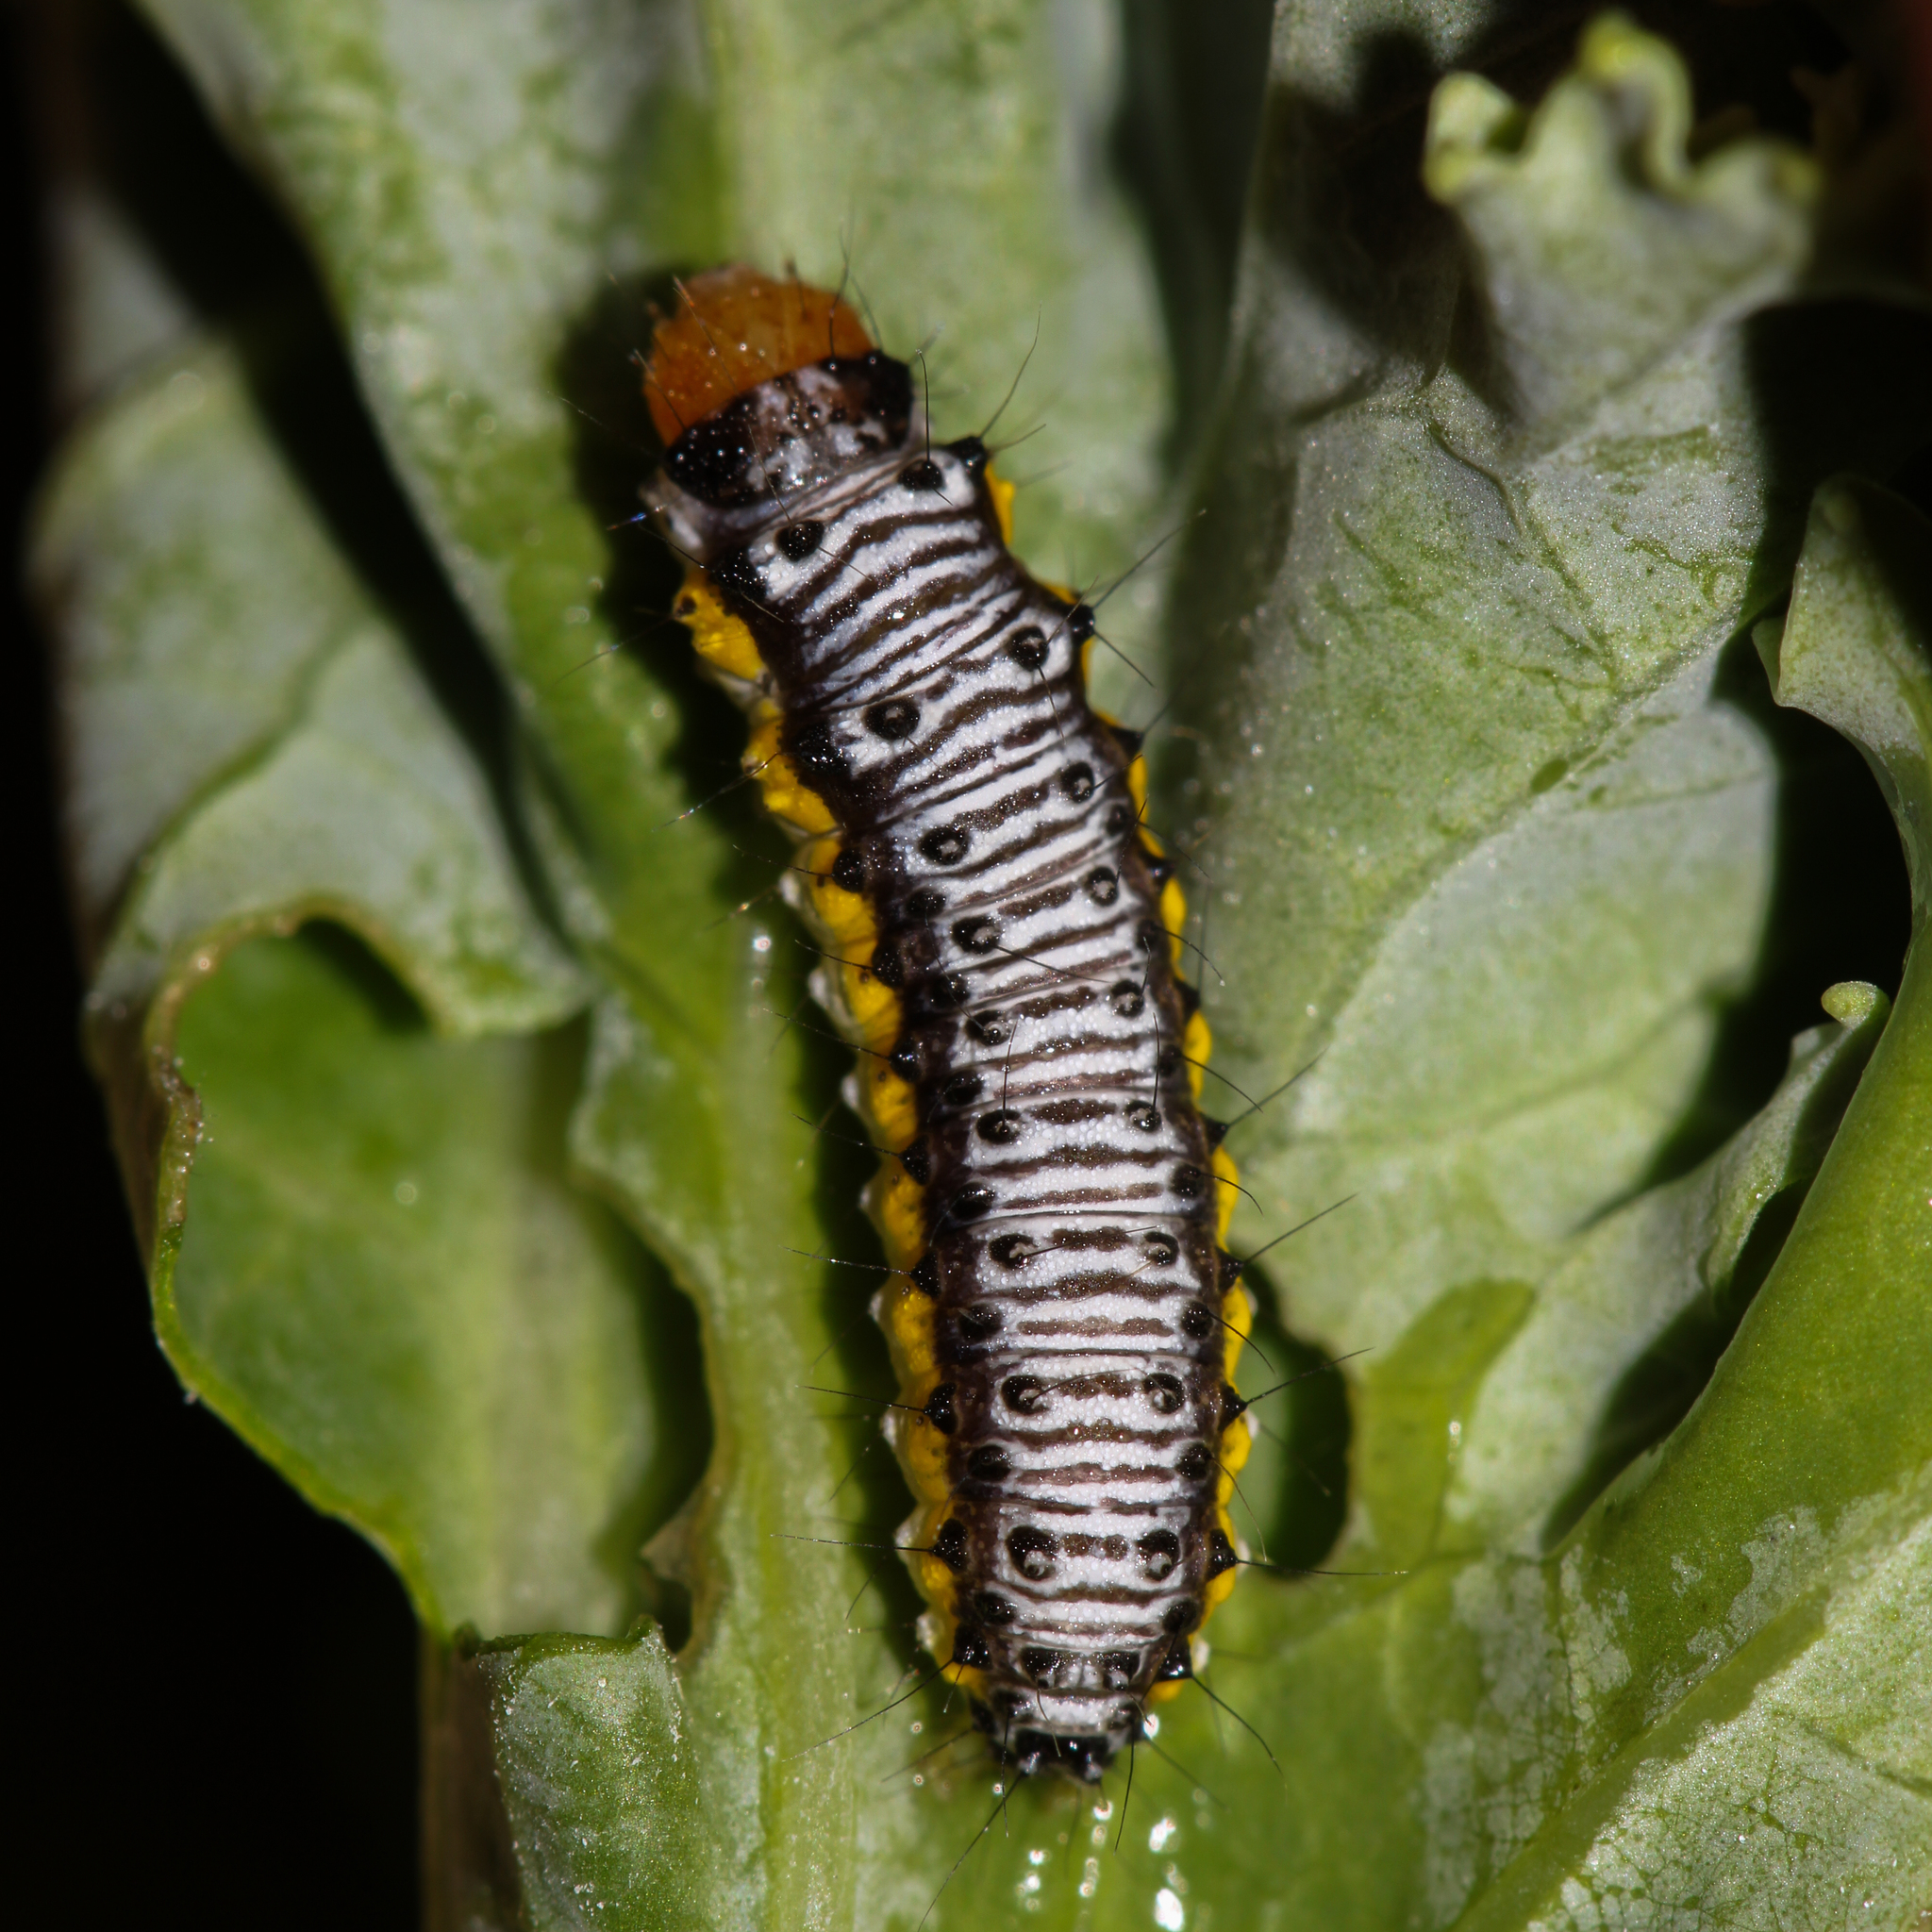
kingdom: Animalia
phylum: Arthropoda
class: Insecta
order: Lepidoptera
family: Crambidae
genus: Evergestis
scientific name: Evergestis rimosalis
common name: Cross-striped cabbageworm moth
